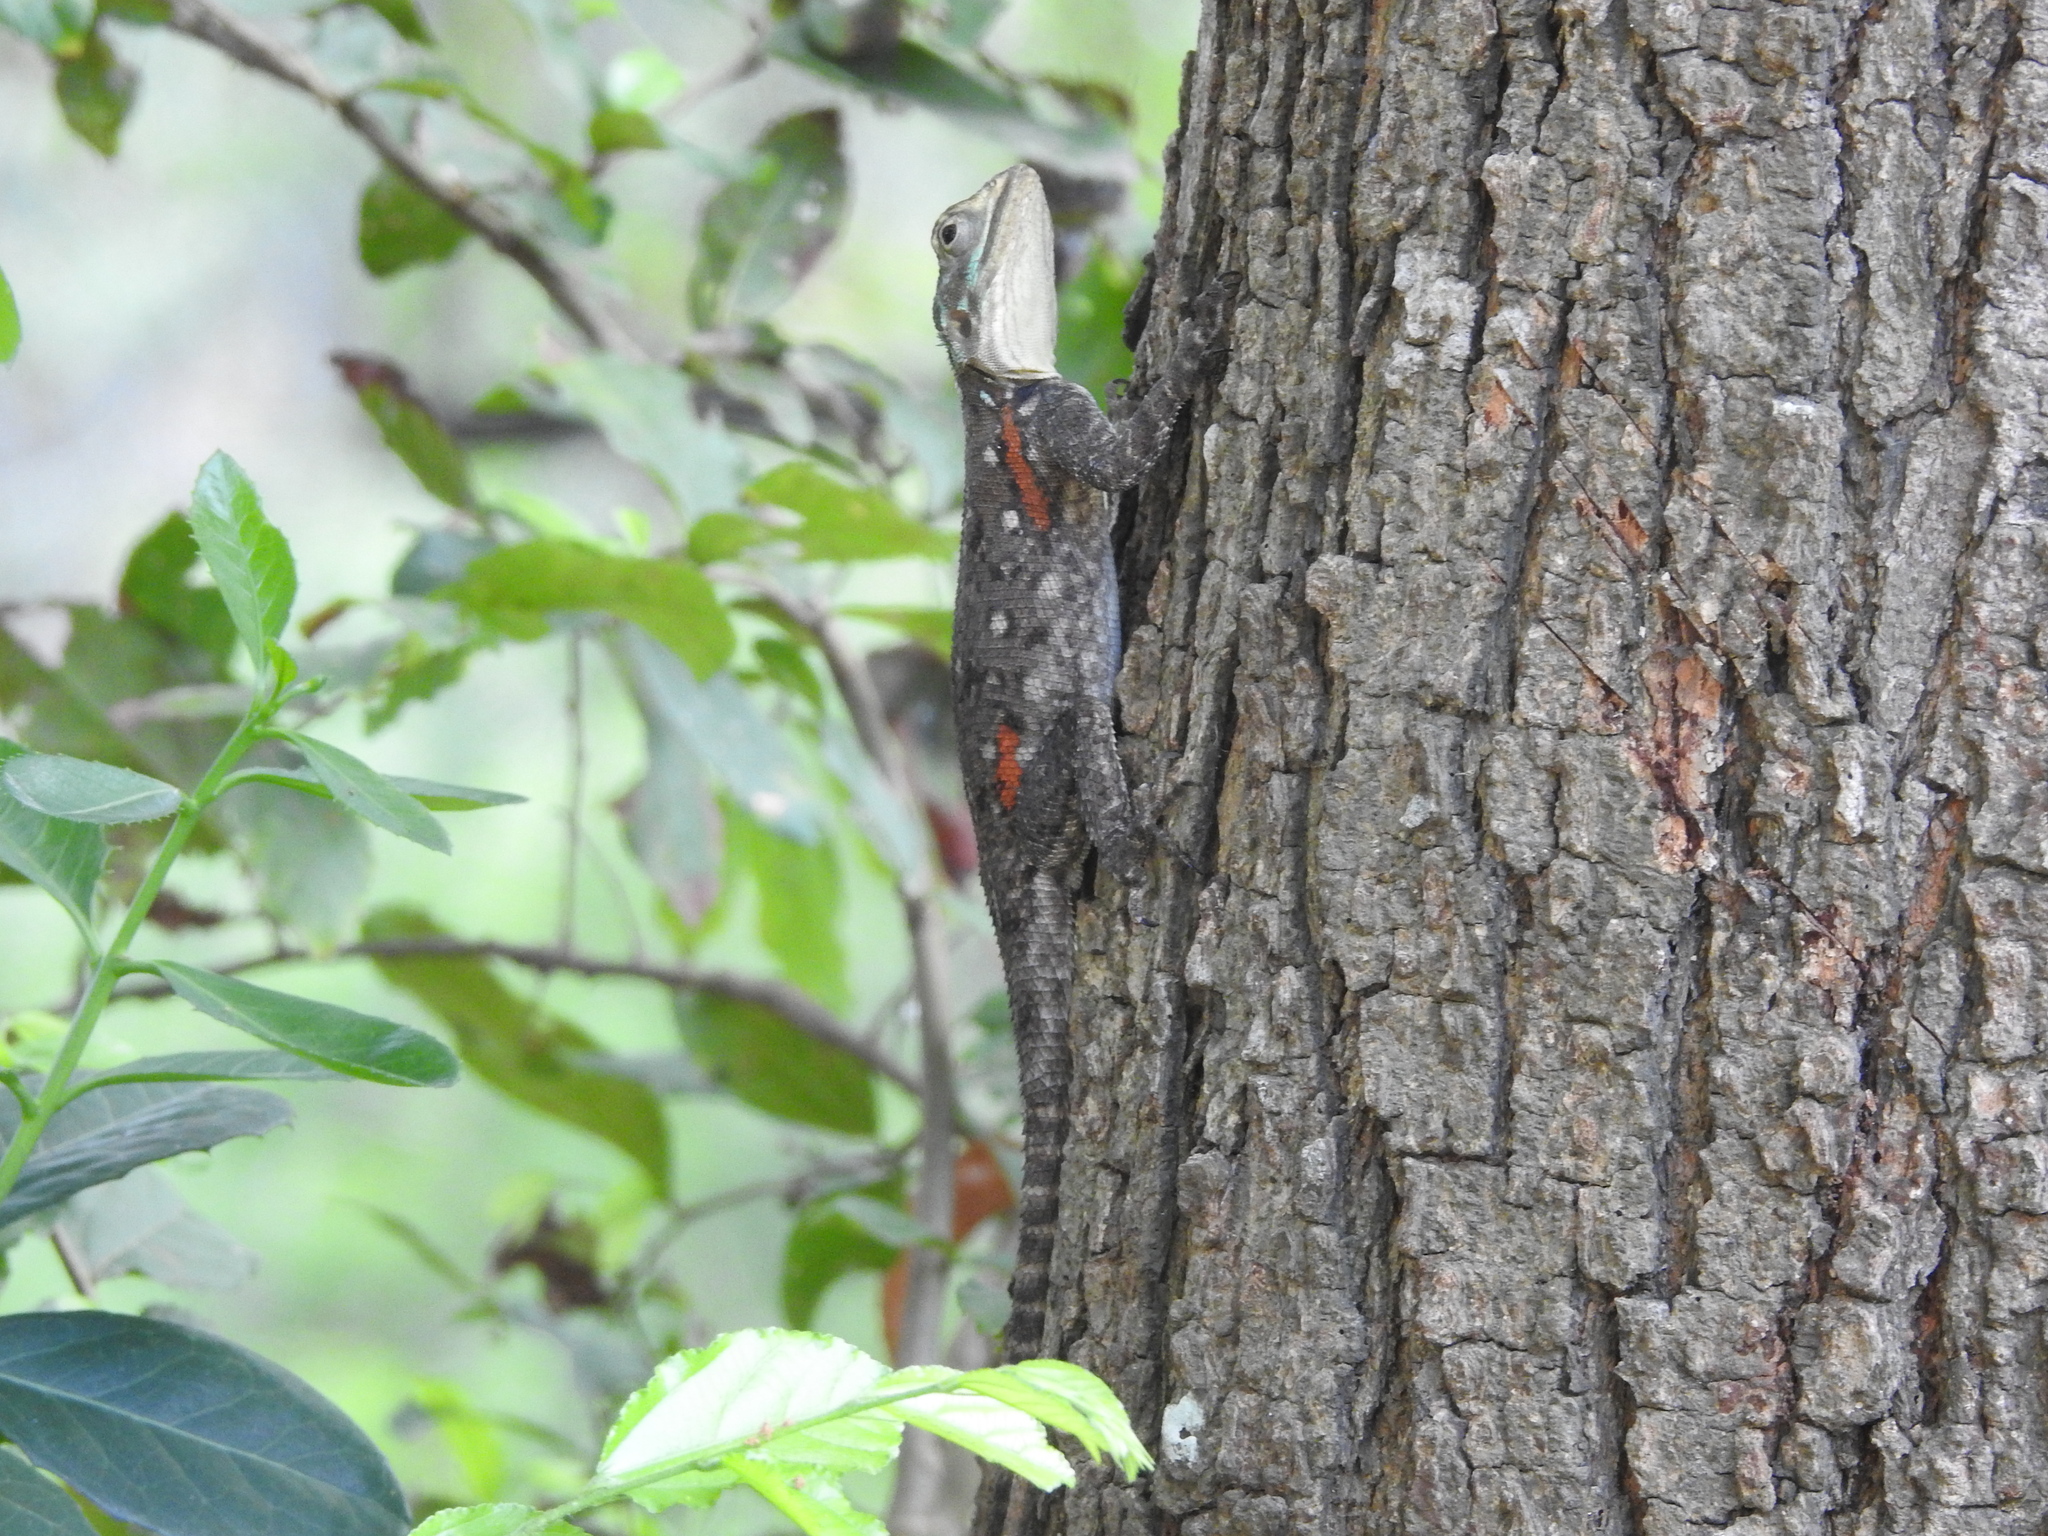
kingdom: Animalia
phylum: Chordata
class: Squamata
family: Agamidae
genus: Agama
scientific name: Agama lionotus
